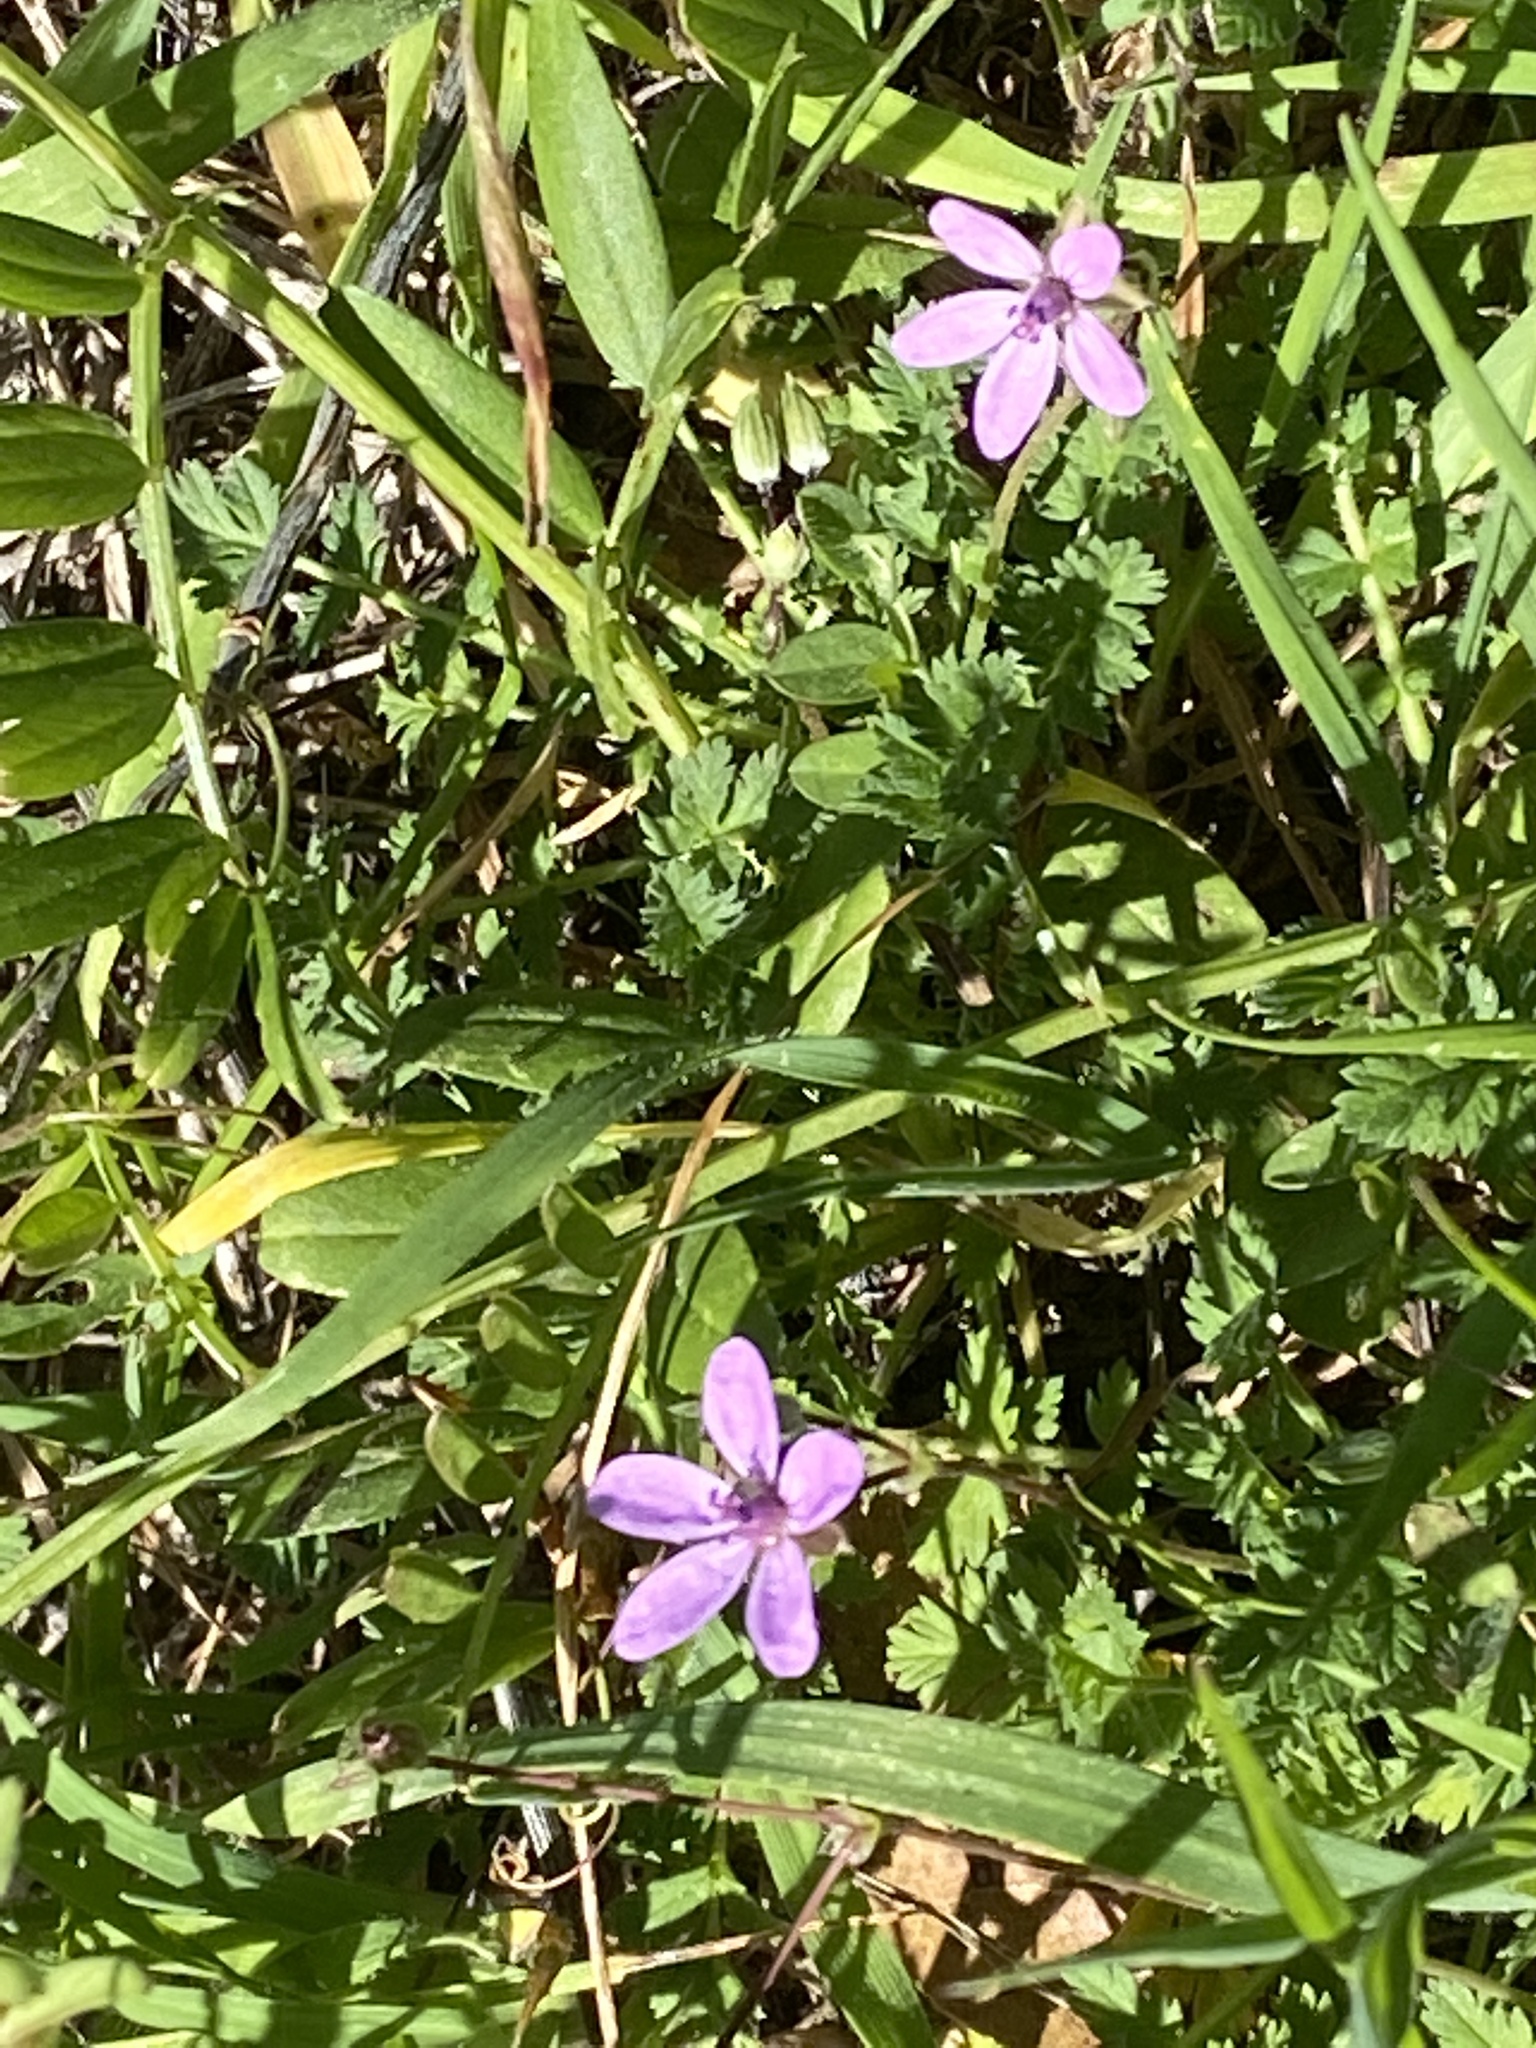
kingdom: Plantae
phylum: Tracheophyta
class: Magnoliopsida
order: Geraniales
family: Geraniaceae
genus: Erodium
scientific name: Erodium cicutarium
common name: Common stork's-bill
